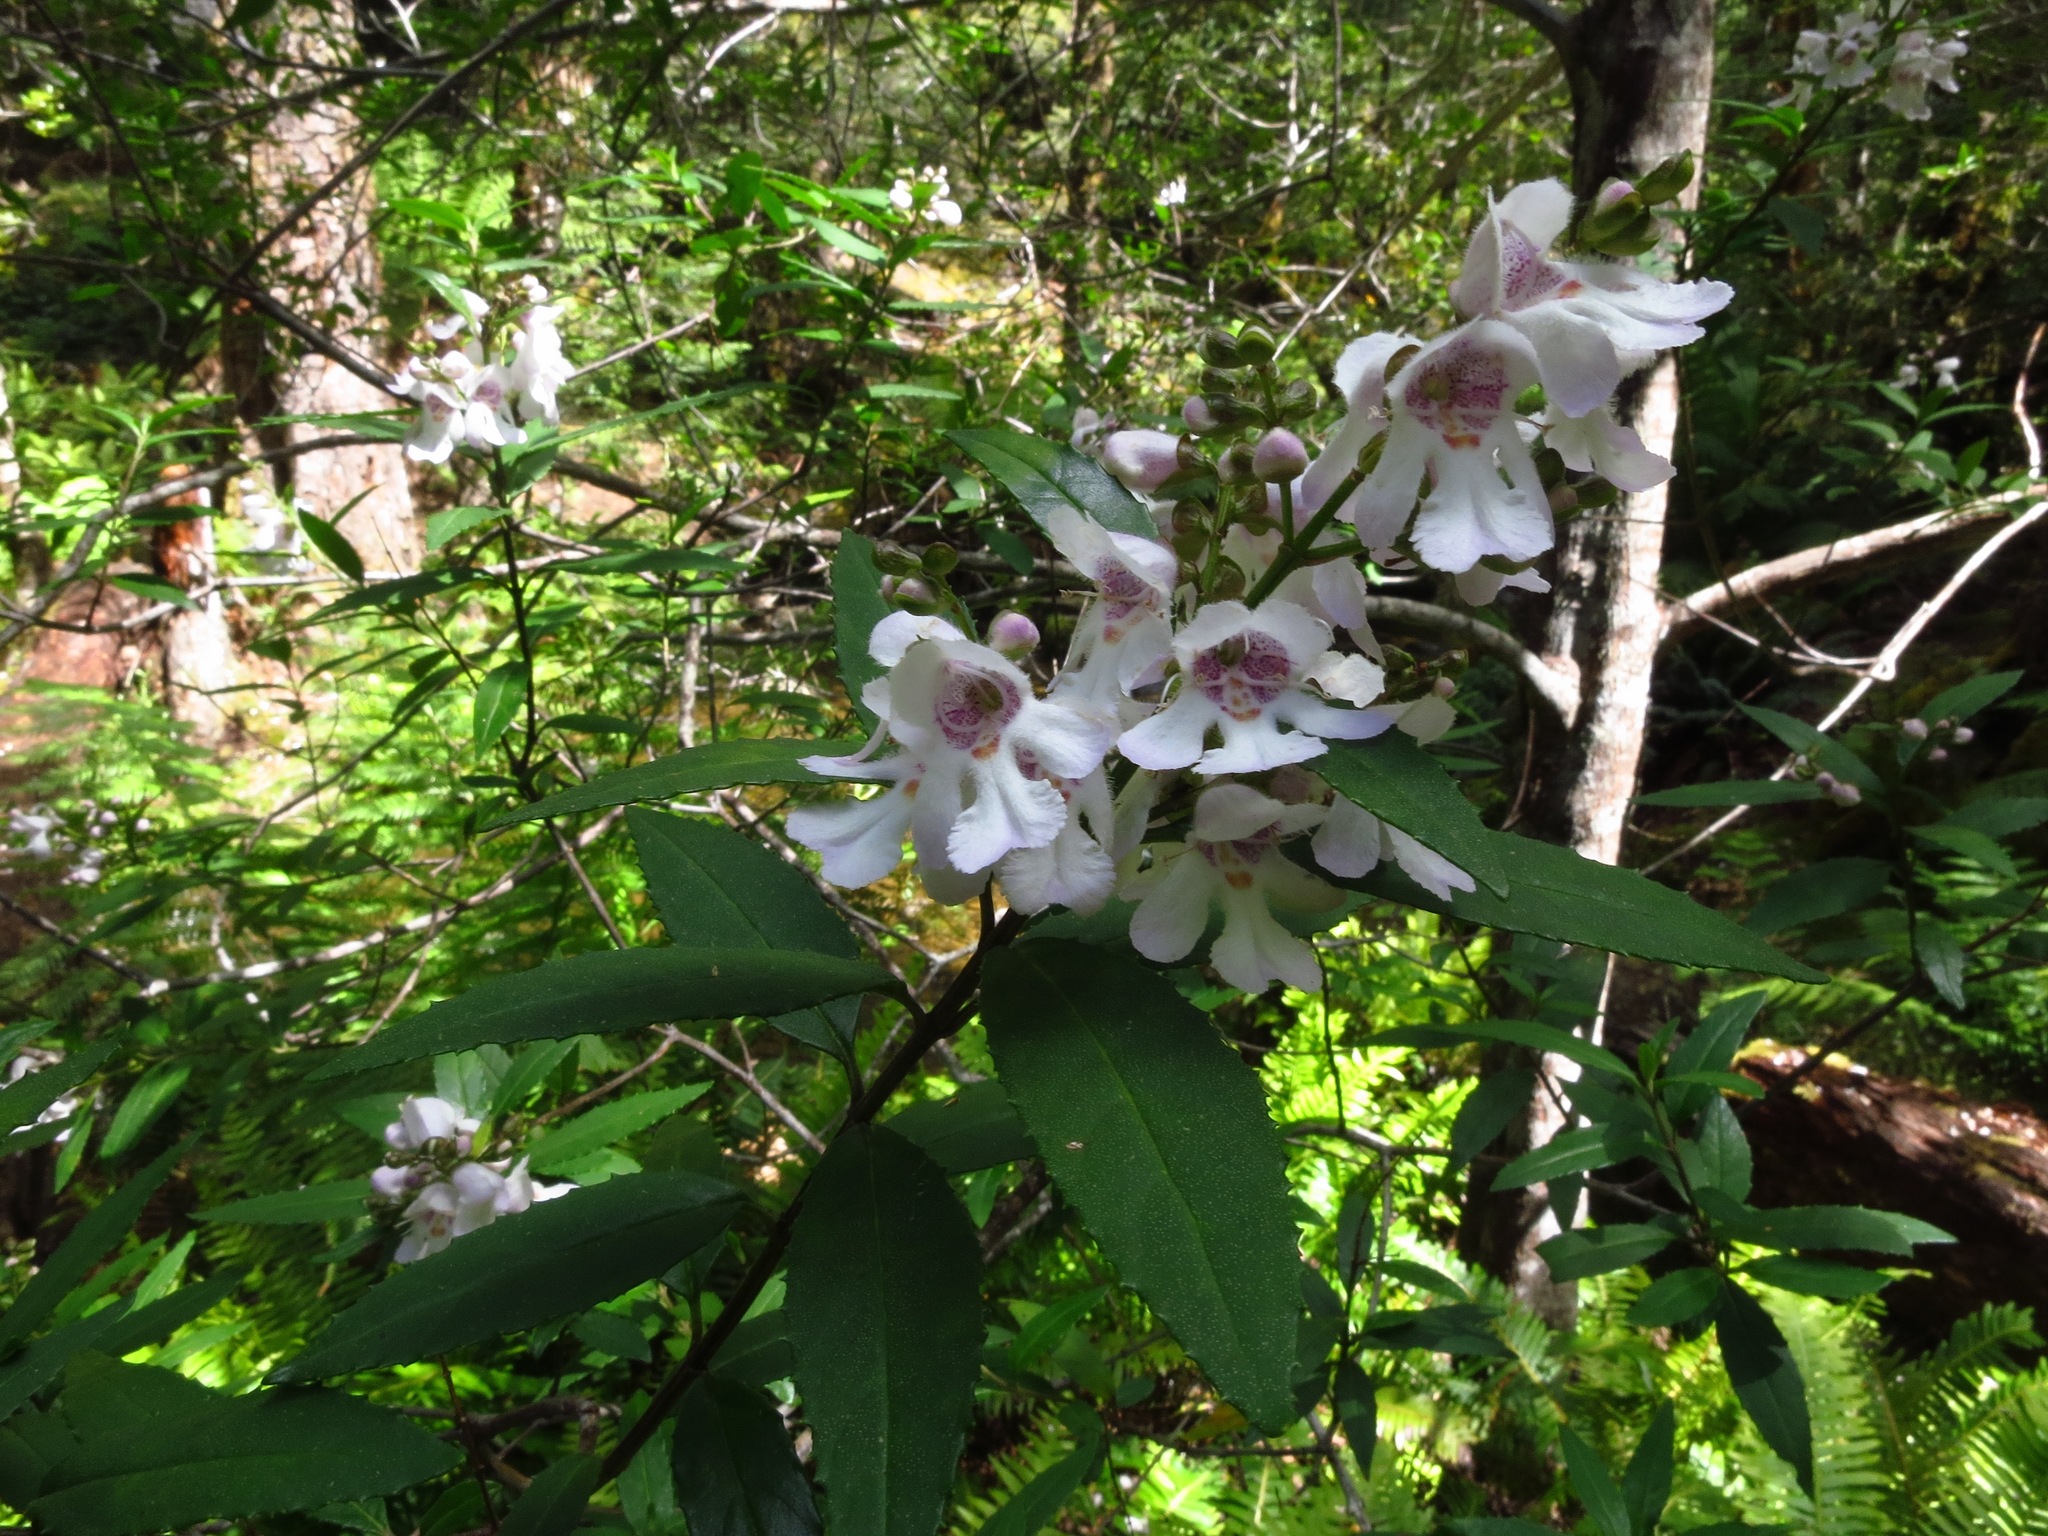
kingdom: Plantae
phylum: Tracheophyta
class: Magnoliopsida
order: Lamiales
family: Lamiaceae
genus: Prostanthera
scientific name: Prostanthera lasianthos
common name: Mountain-lilac
